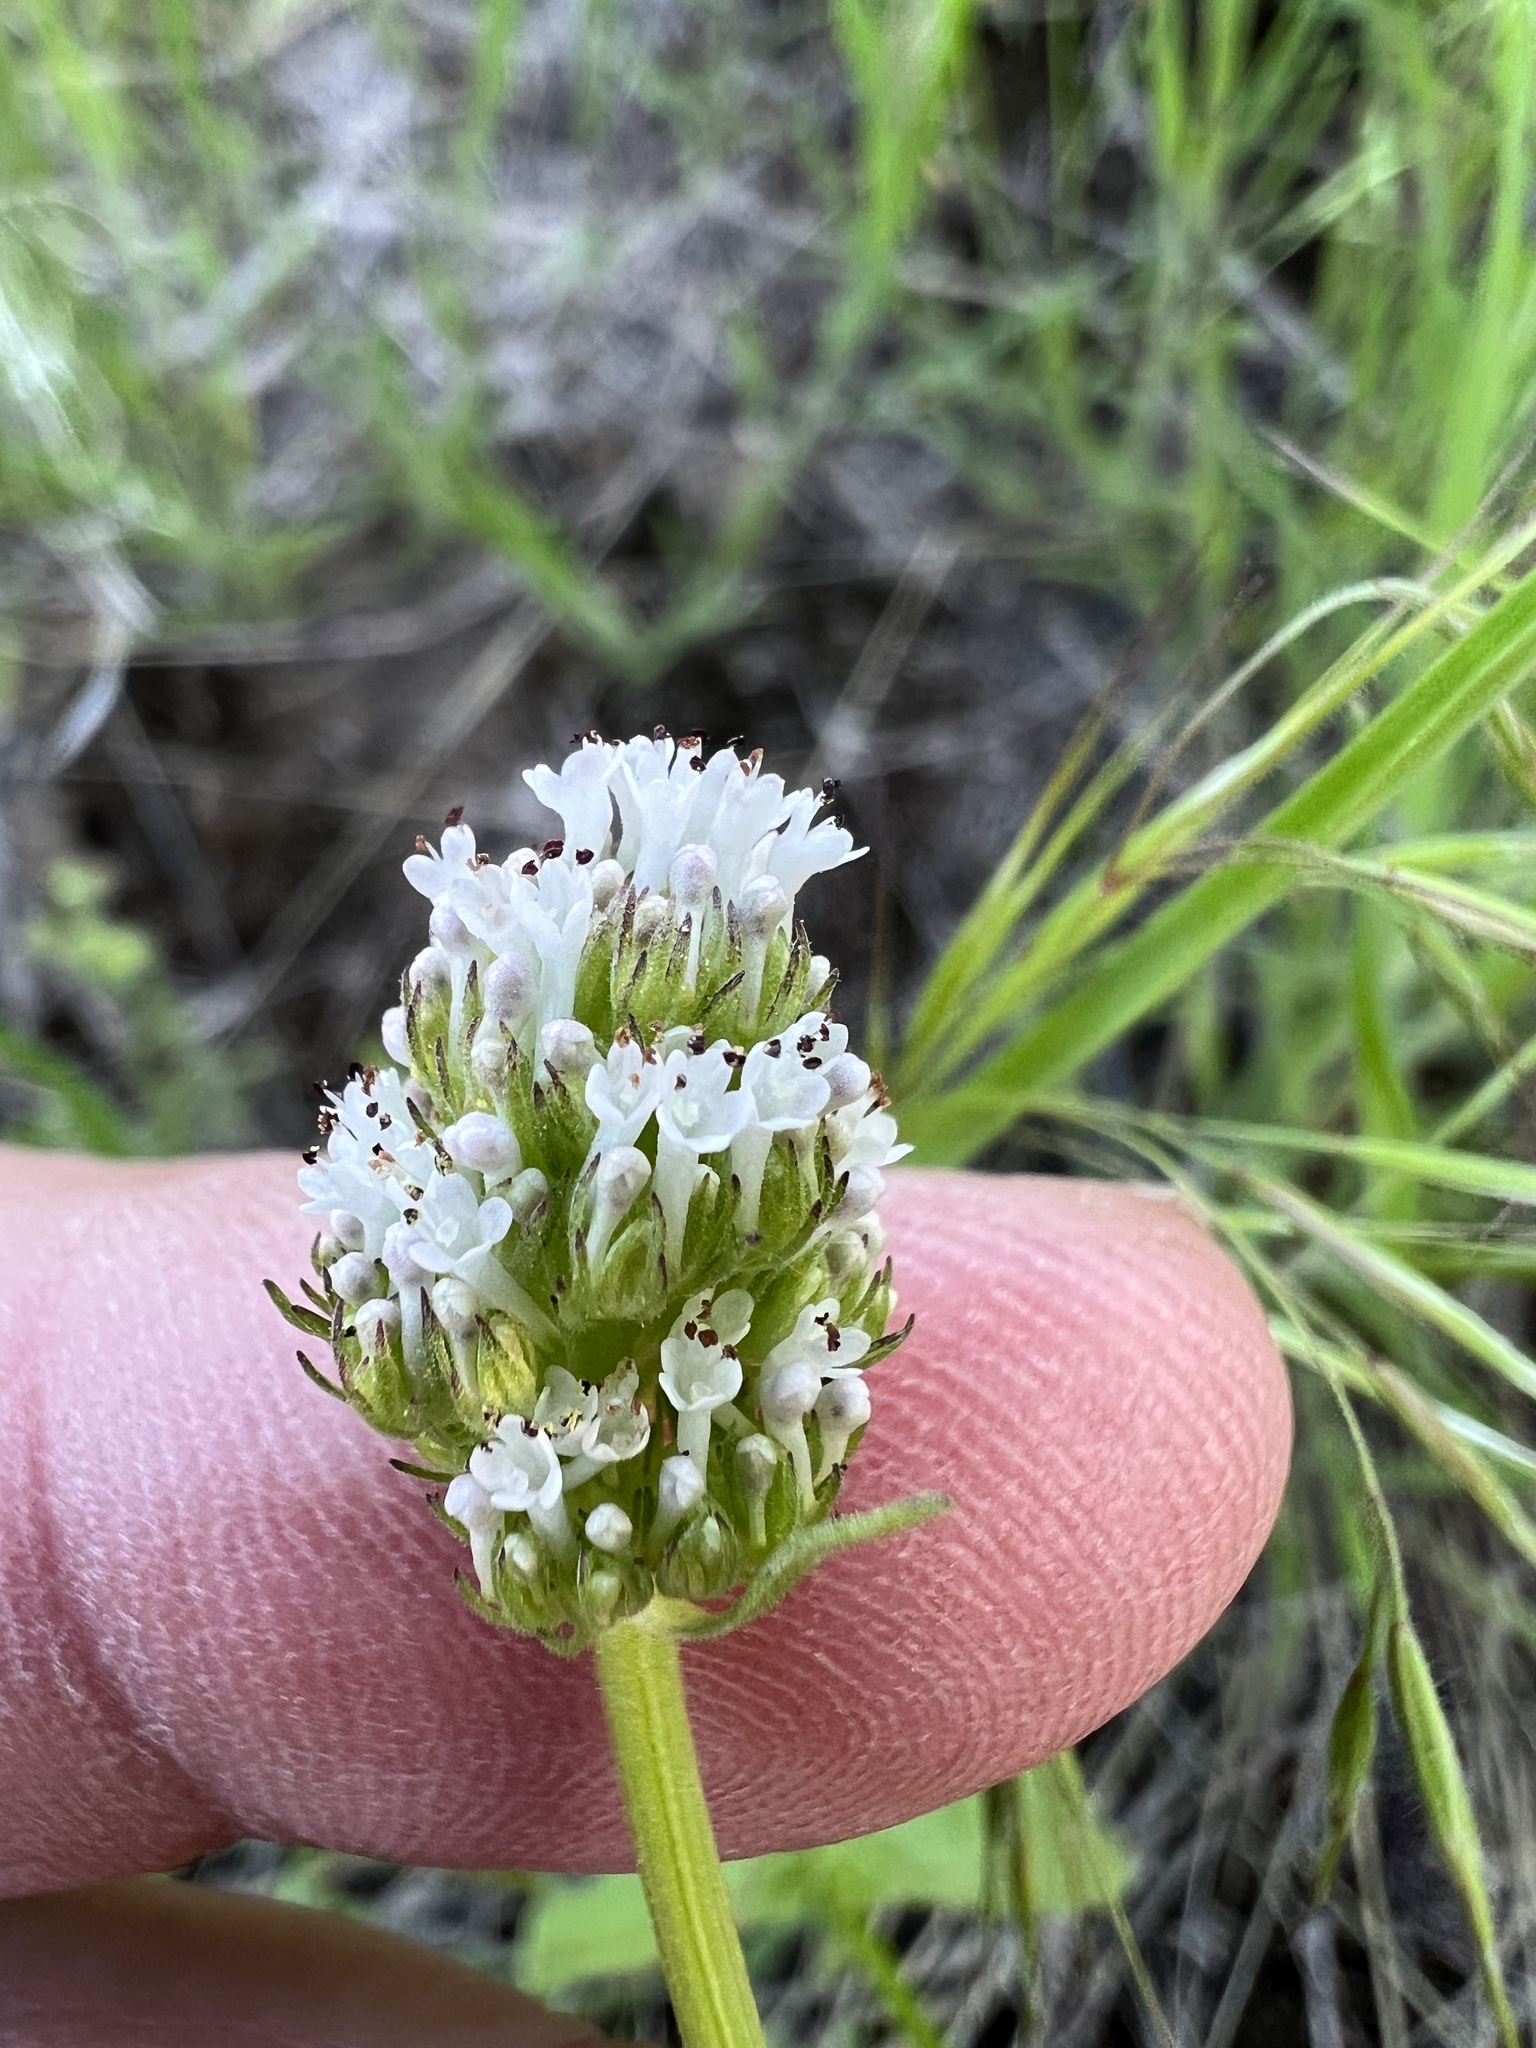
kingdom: Plantae
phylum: Tracheophyta
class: Magnoliopsida
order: Dipsacales
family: Caprifoliaceae
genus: Plectritis
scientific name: Plectritis macroptera
